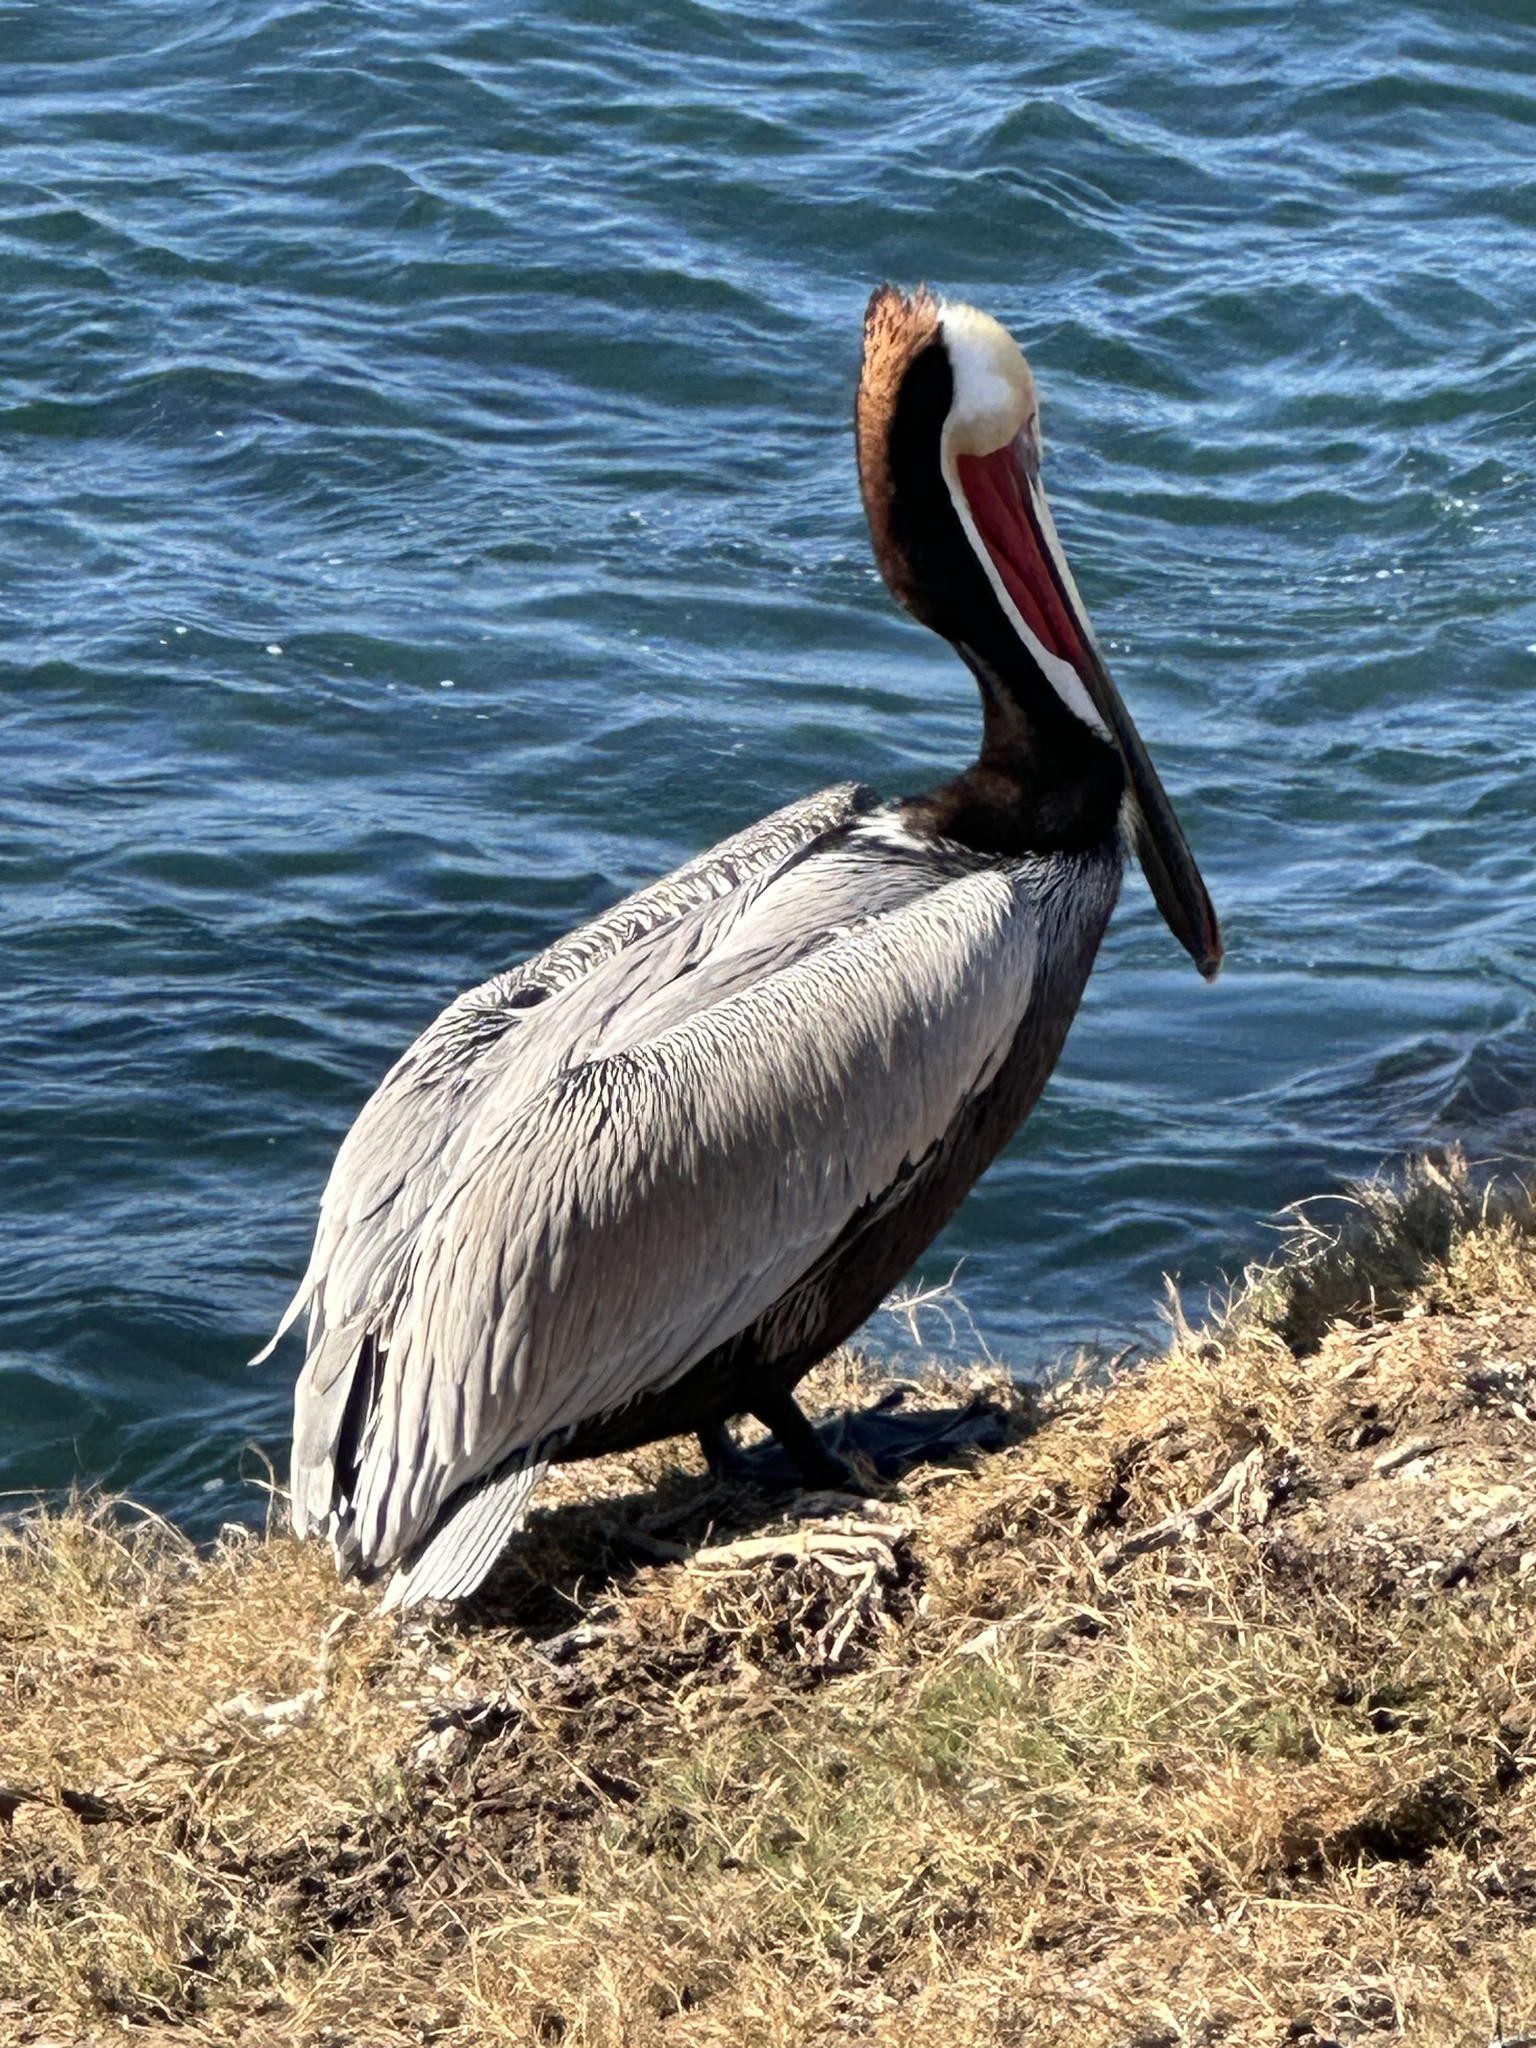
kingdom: Animalia
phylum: Chordata
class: Aves
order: Pelecaniformes
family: Pelecanidae
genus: Pelecanus
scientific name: Pelecanus occidentalis
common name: Brown pelican
